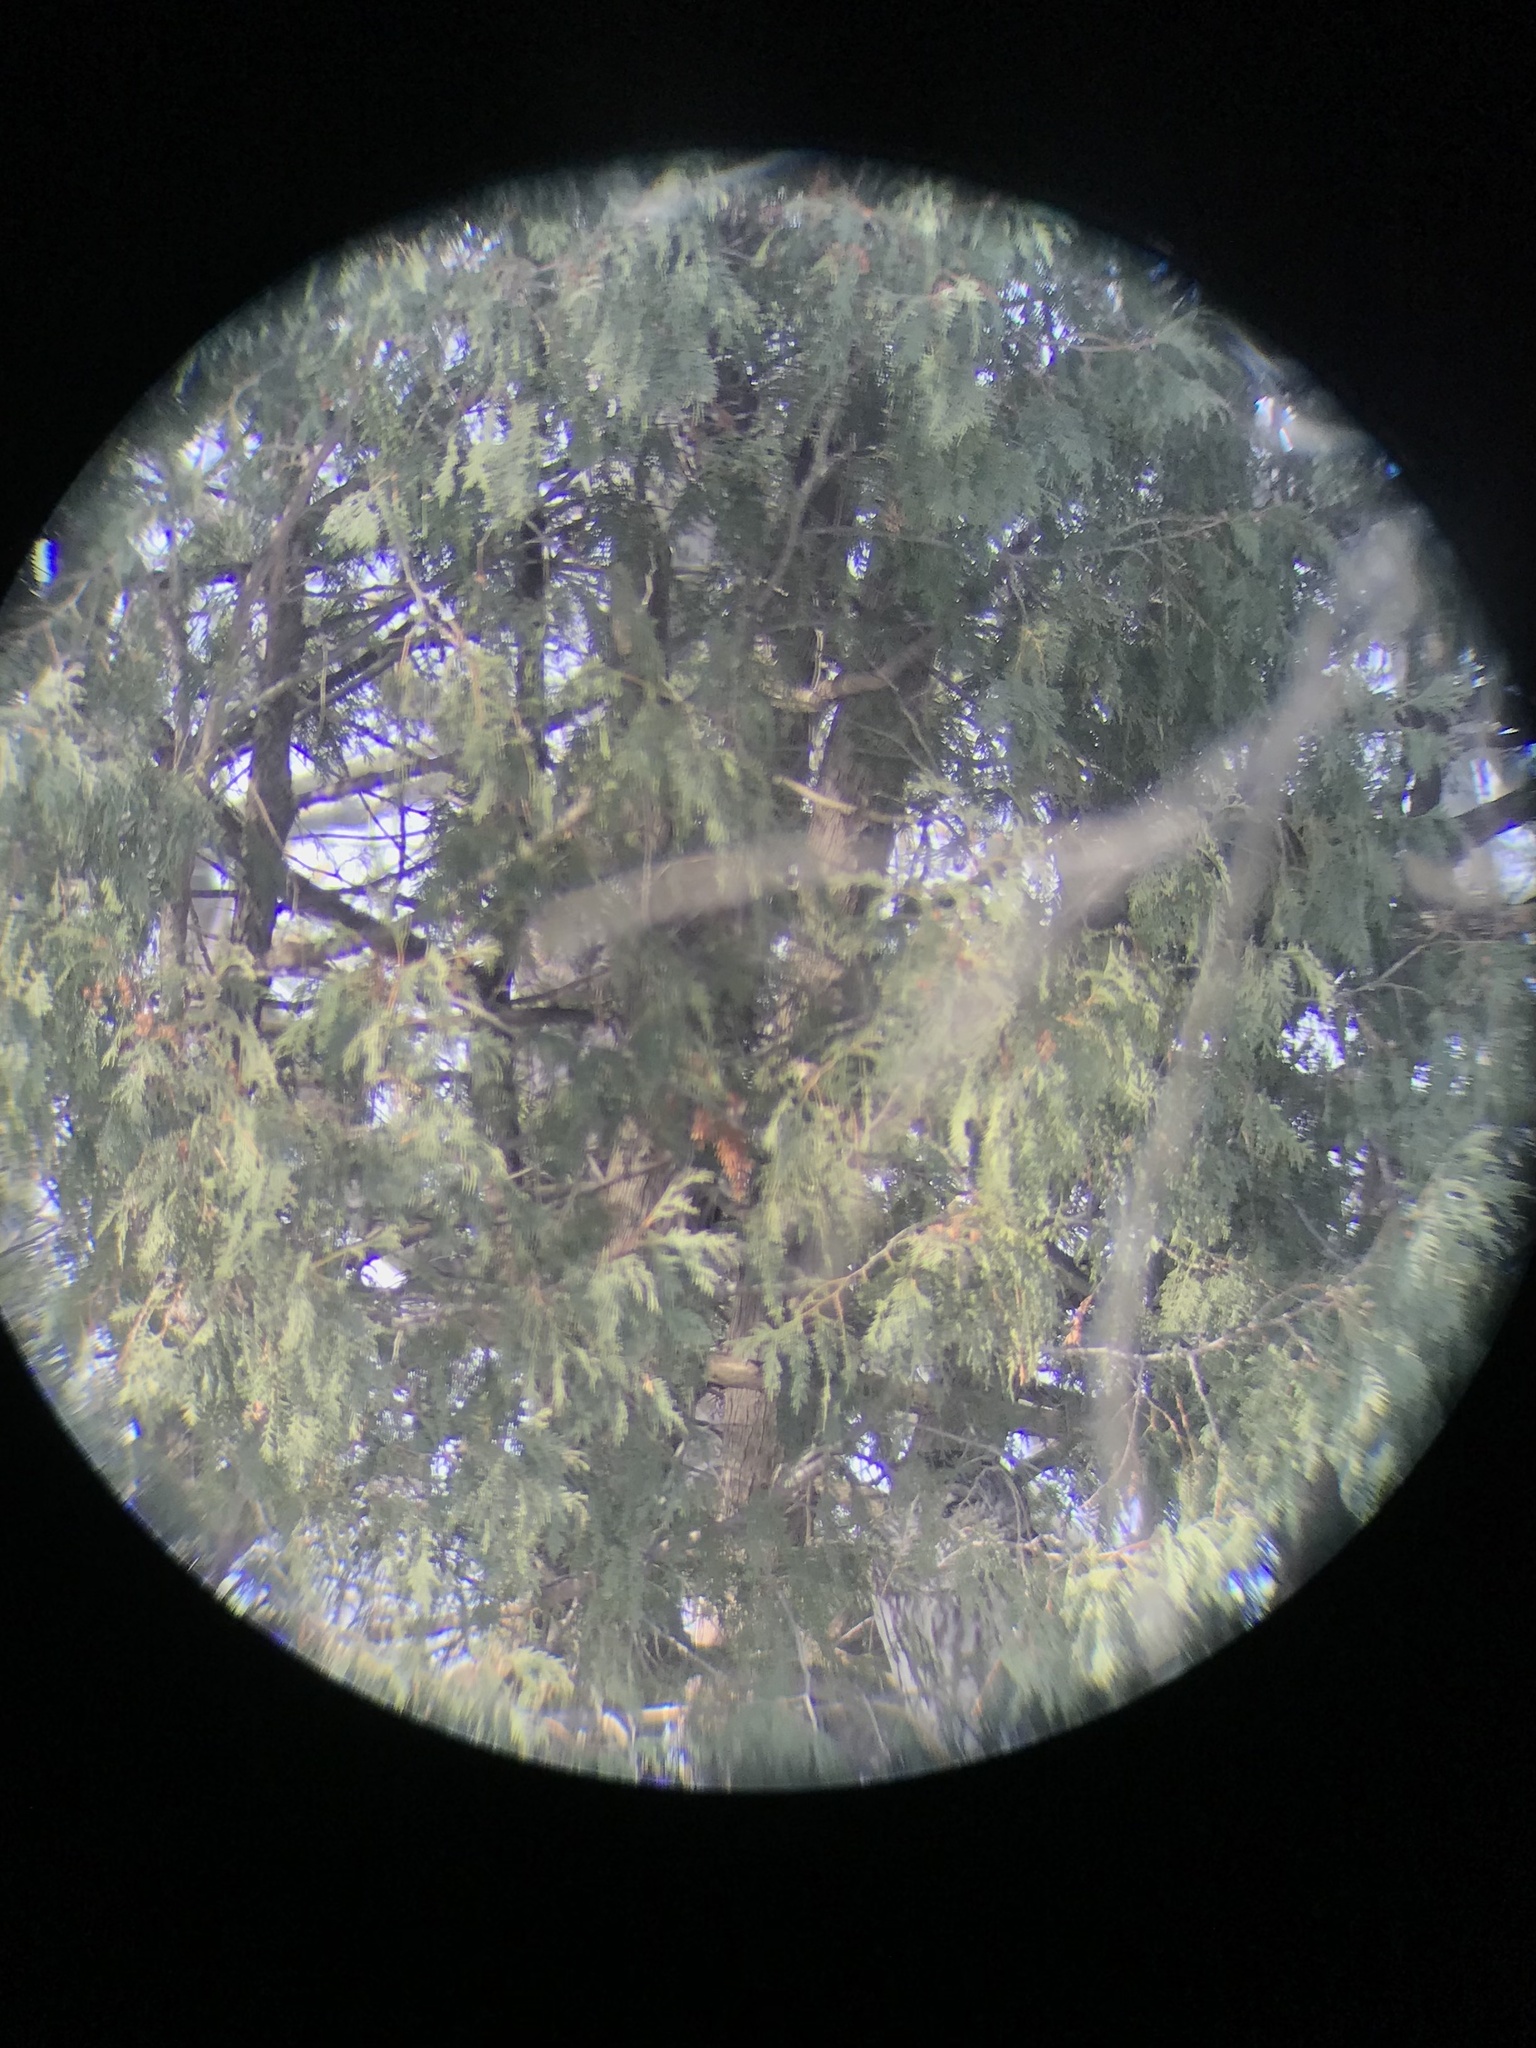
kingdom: Animalia
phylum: Chordata
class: Aves
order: Strigiformes
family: Strigidae
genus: Strix
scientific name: Strix varia
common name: Barred owl
